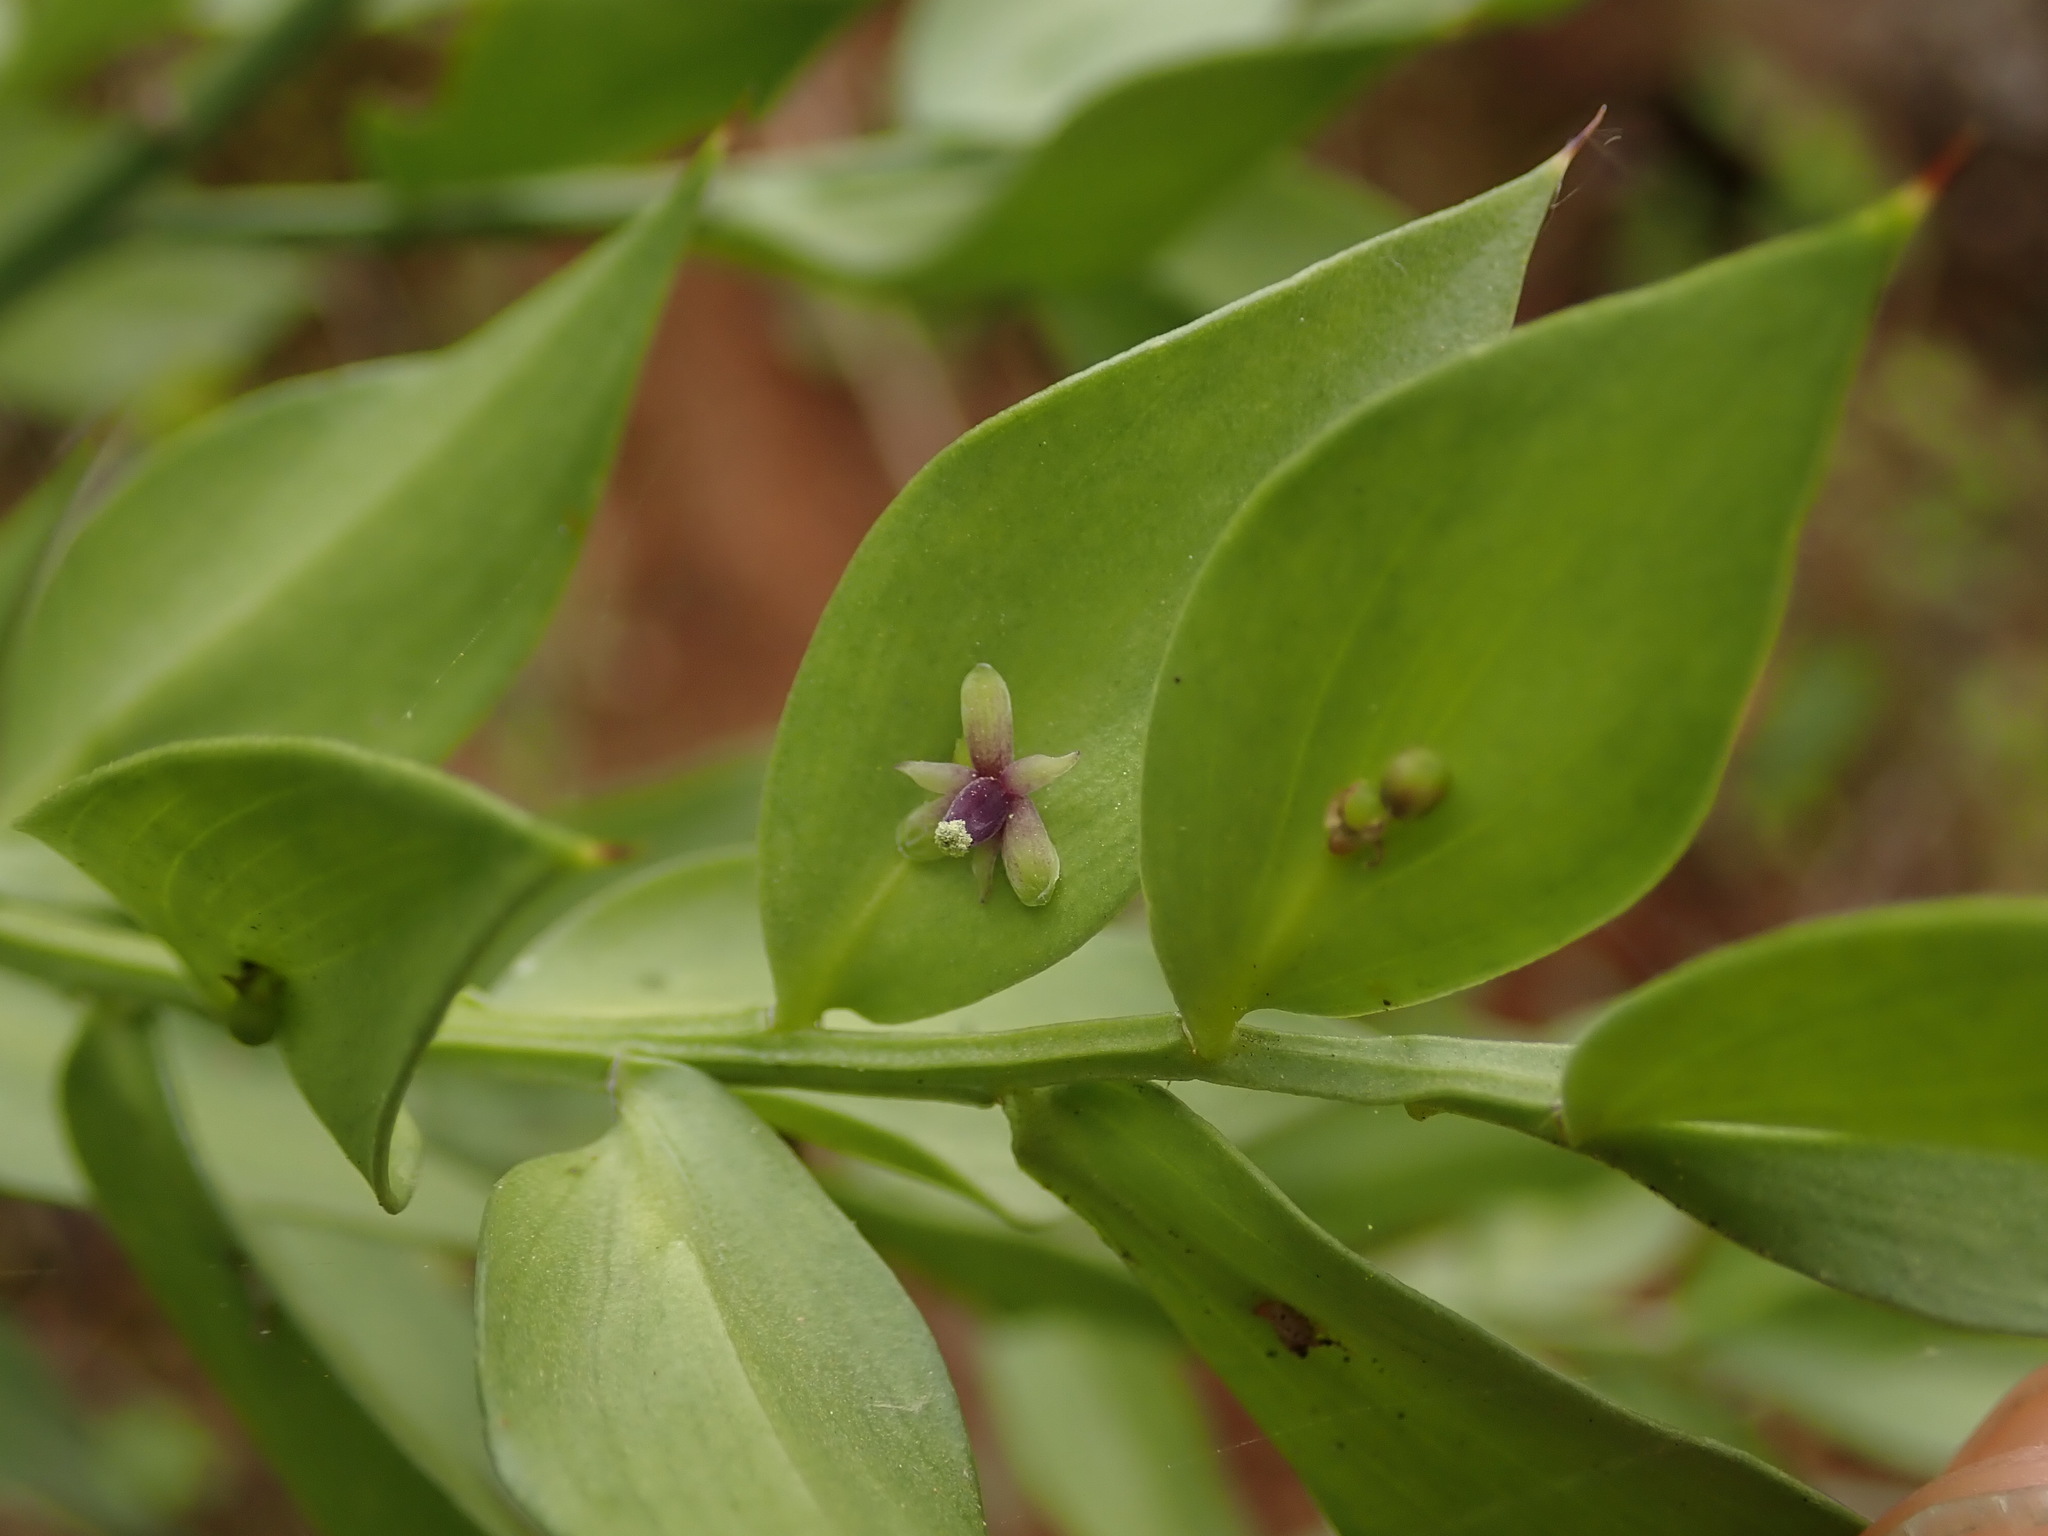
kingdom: Plantae
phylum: Tracheophyta
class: Liliopsida
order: Asparagales
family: Asparagaceae
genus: Ruscus
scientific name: Ruscus aculeatus
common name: Butcher's-broom
